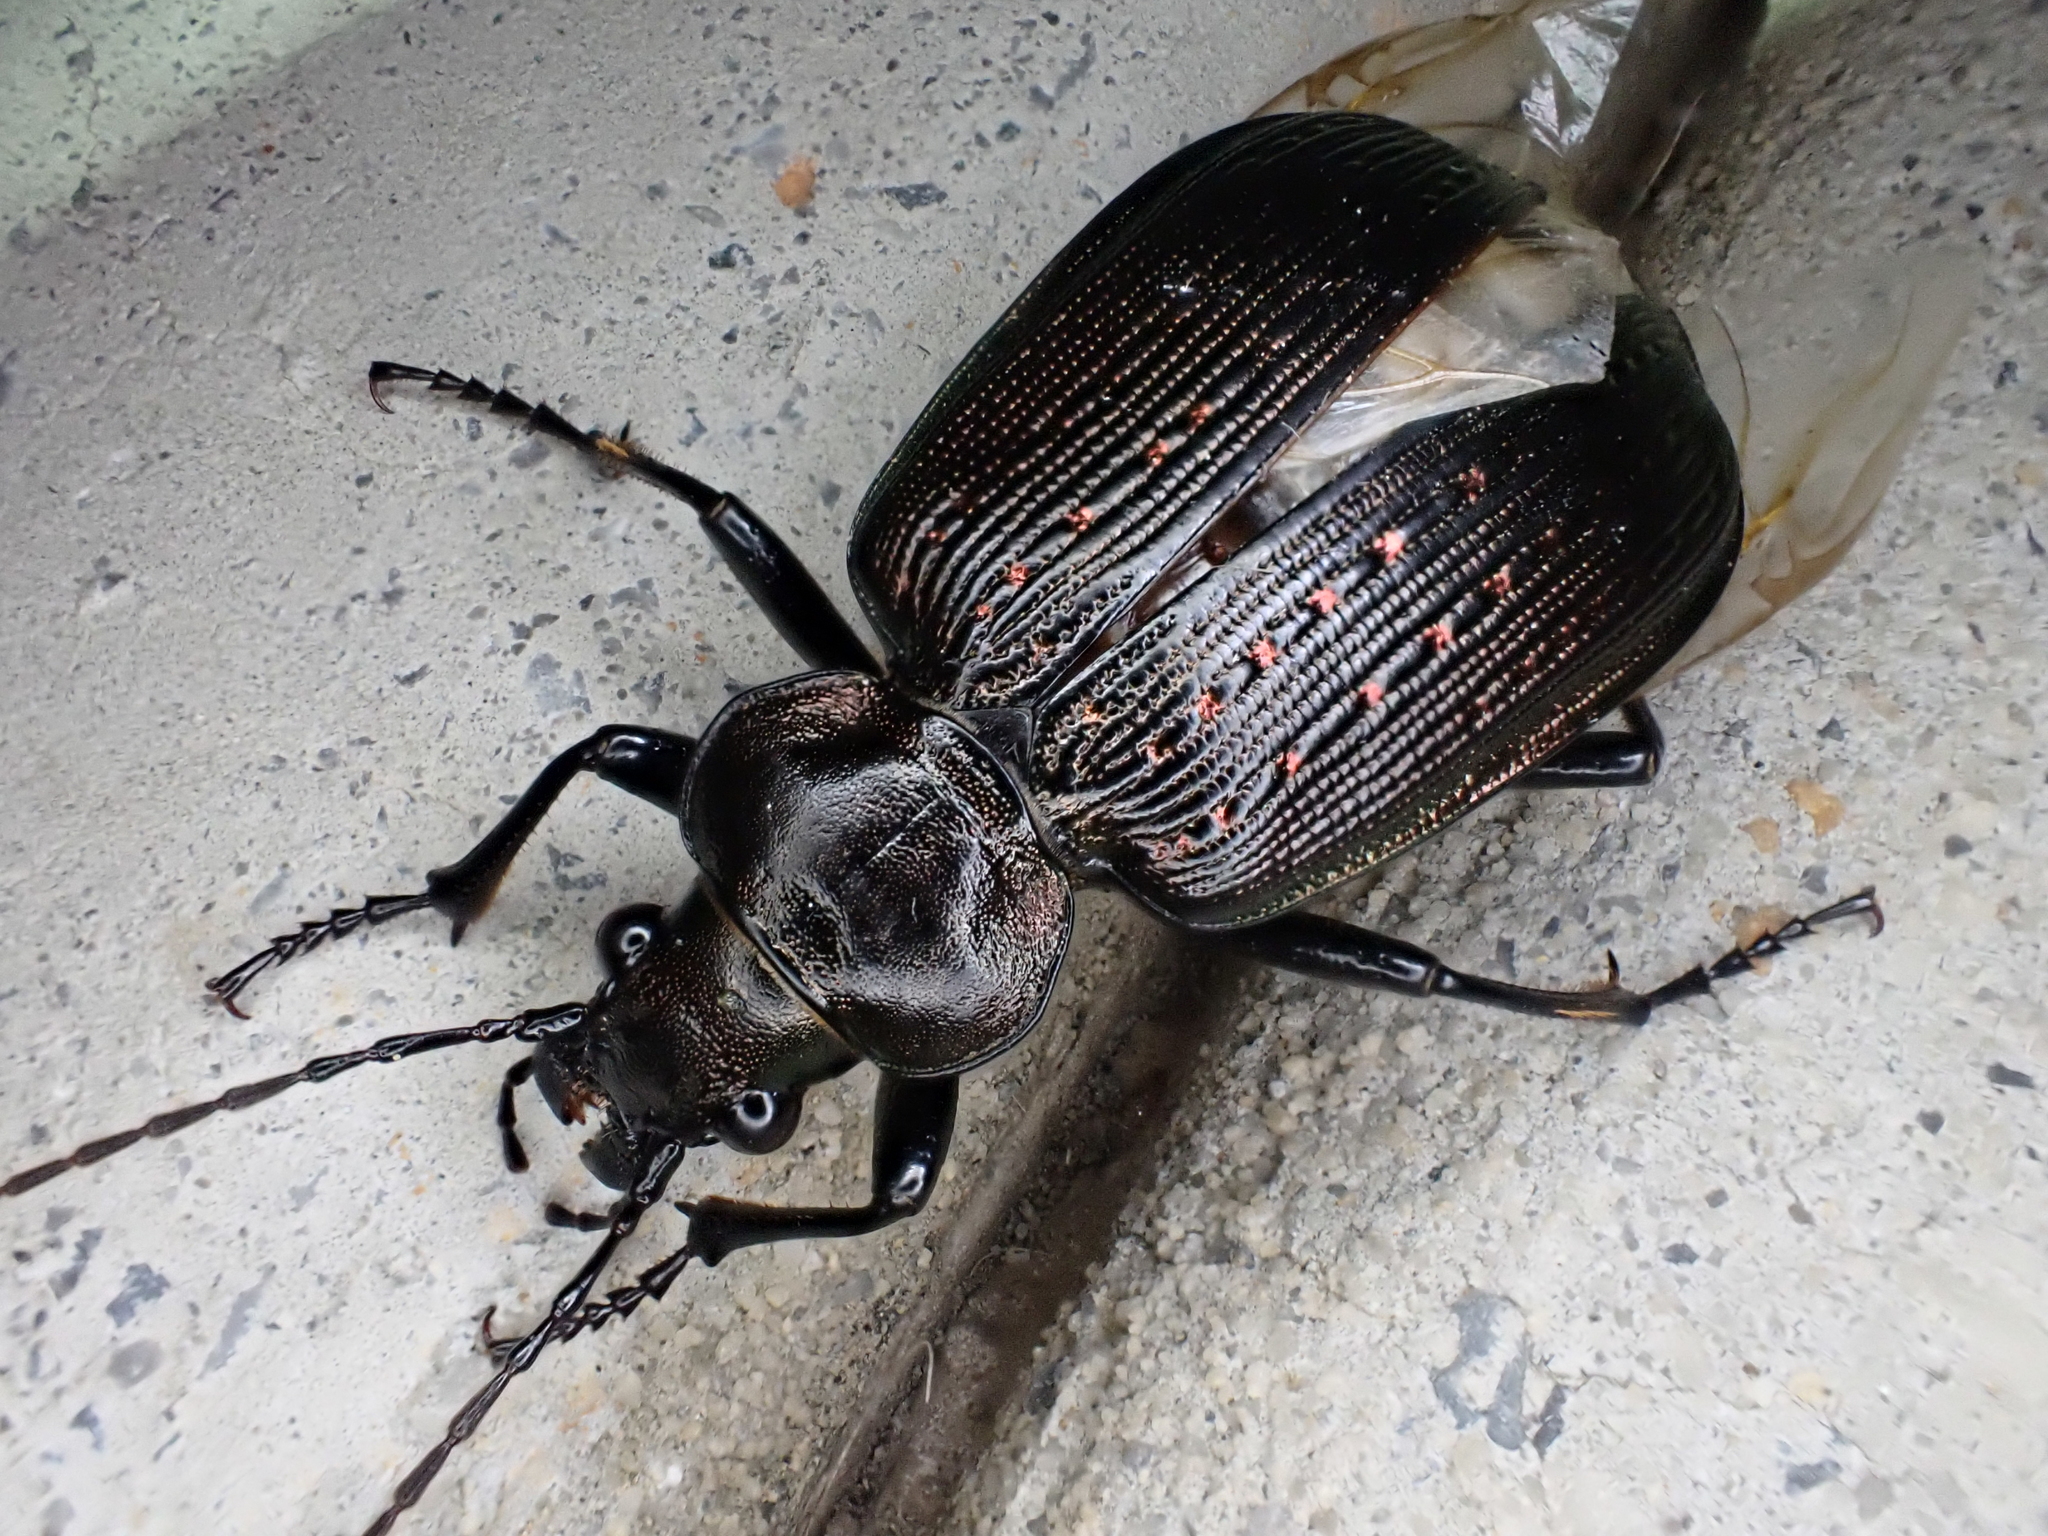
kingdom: Animalia
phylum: Arthropoda
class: Insecta
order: Coleoptera
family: Carabidae
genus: Calosoma
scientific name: Calosoma sayi
